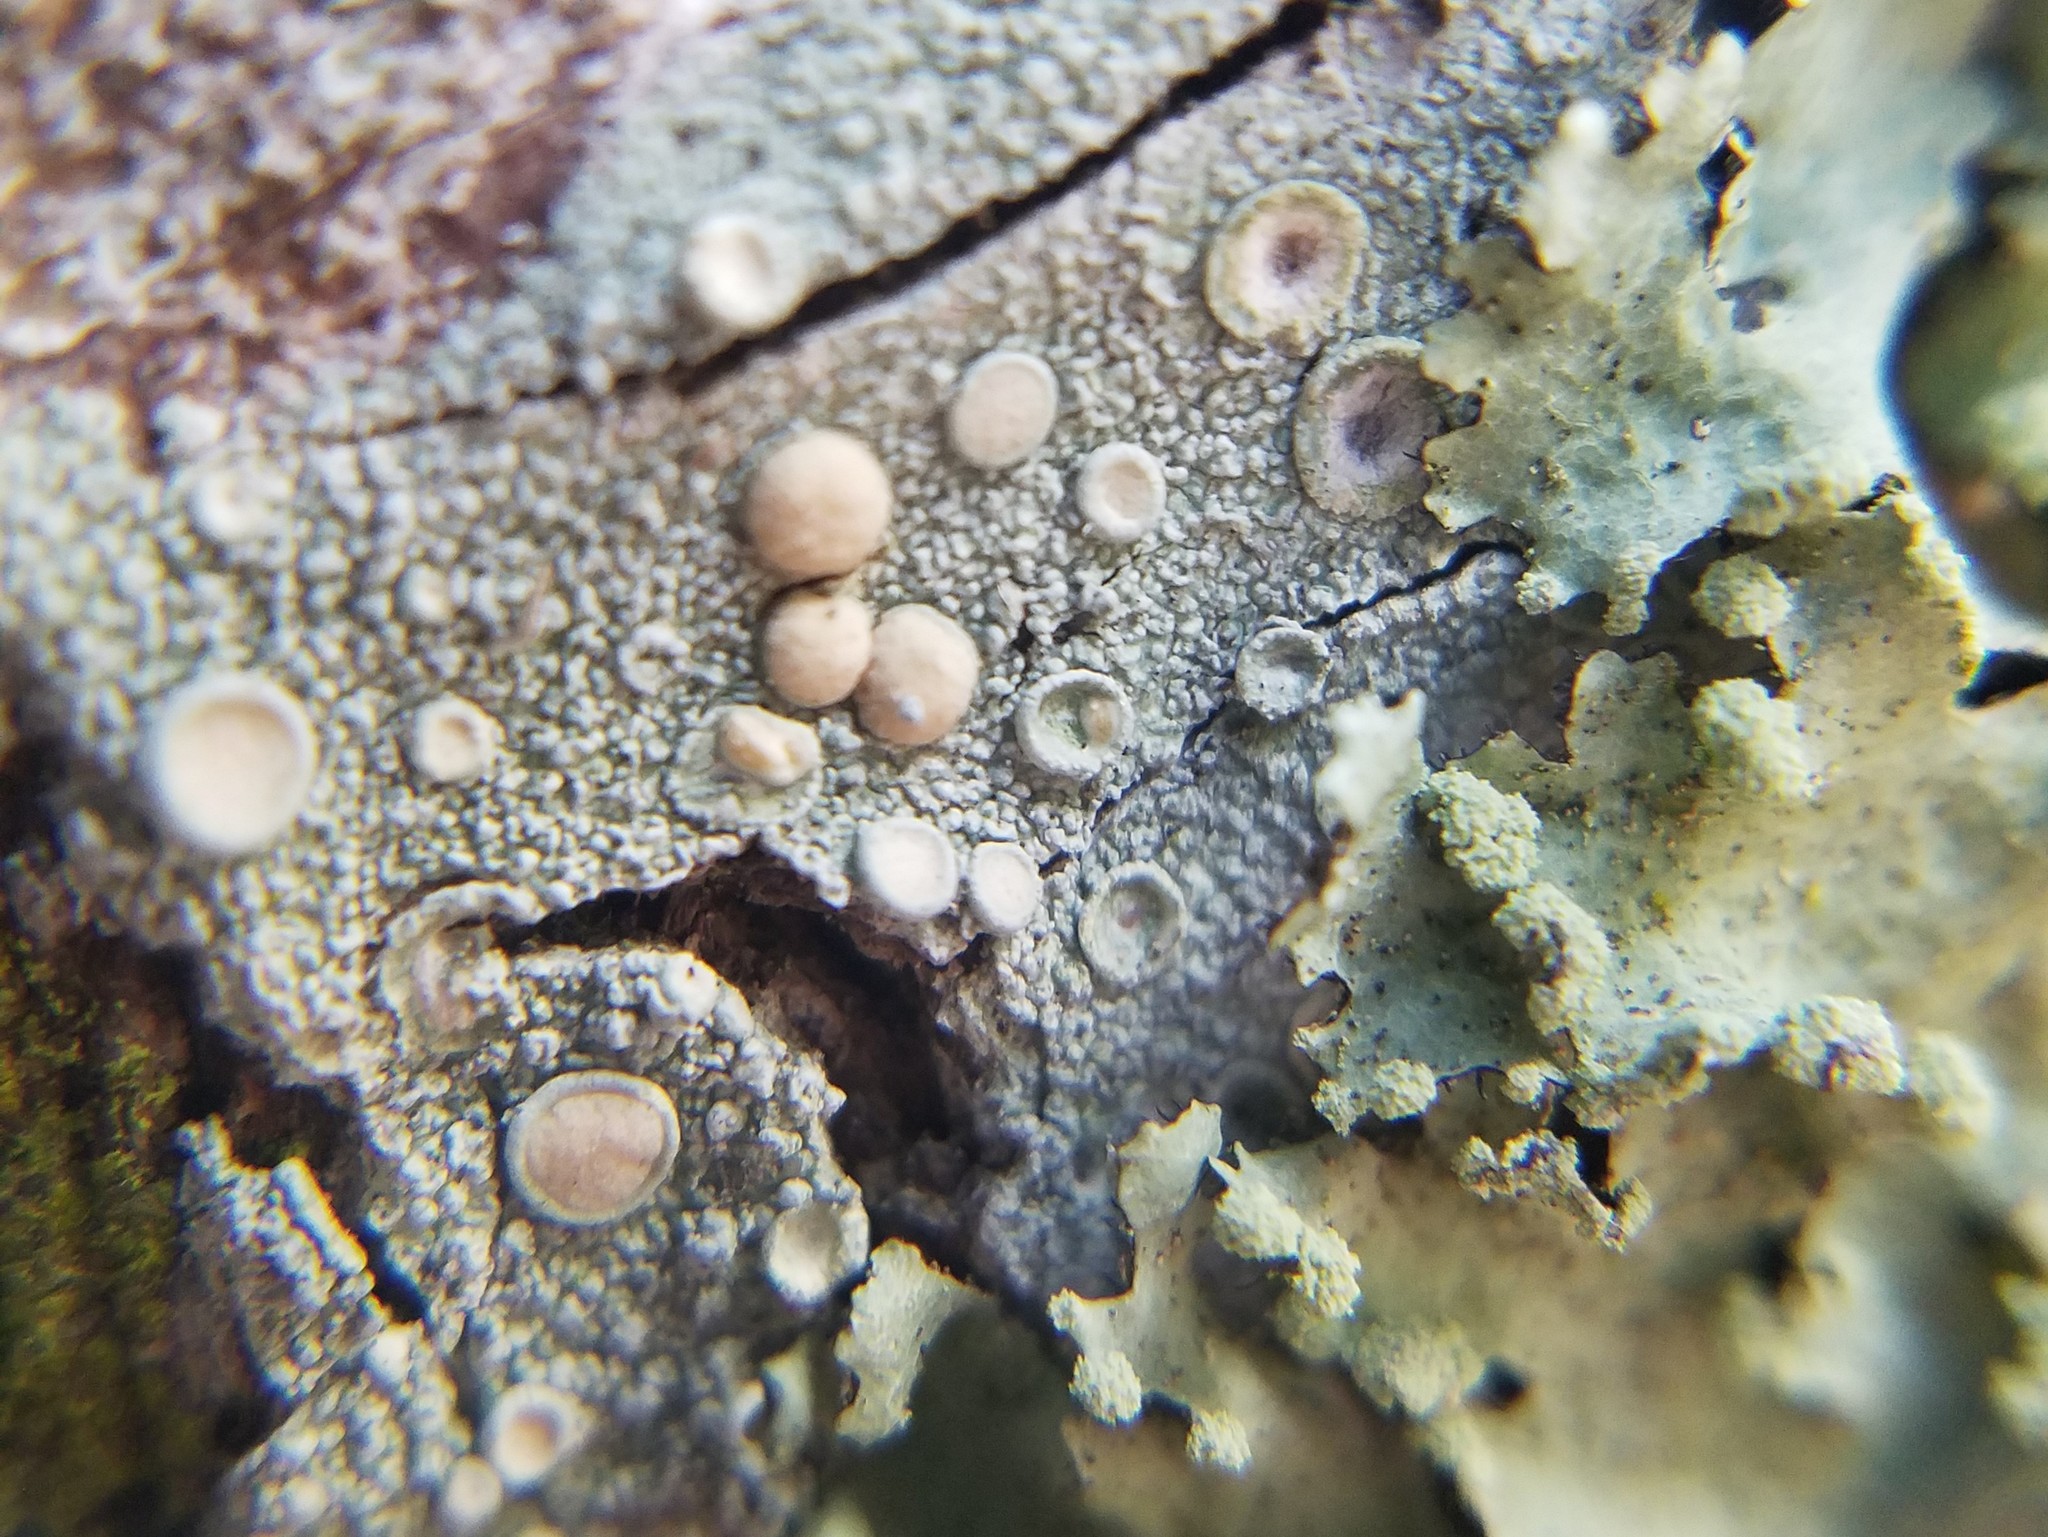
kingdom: Fungi
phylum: Ascomycota
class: Lecanoromycetes
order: Pertusariales
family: Ochrolechiaceae
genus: Ochrolechia
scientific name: Ochrolechia africana
